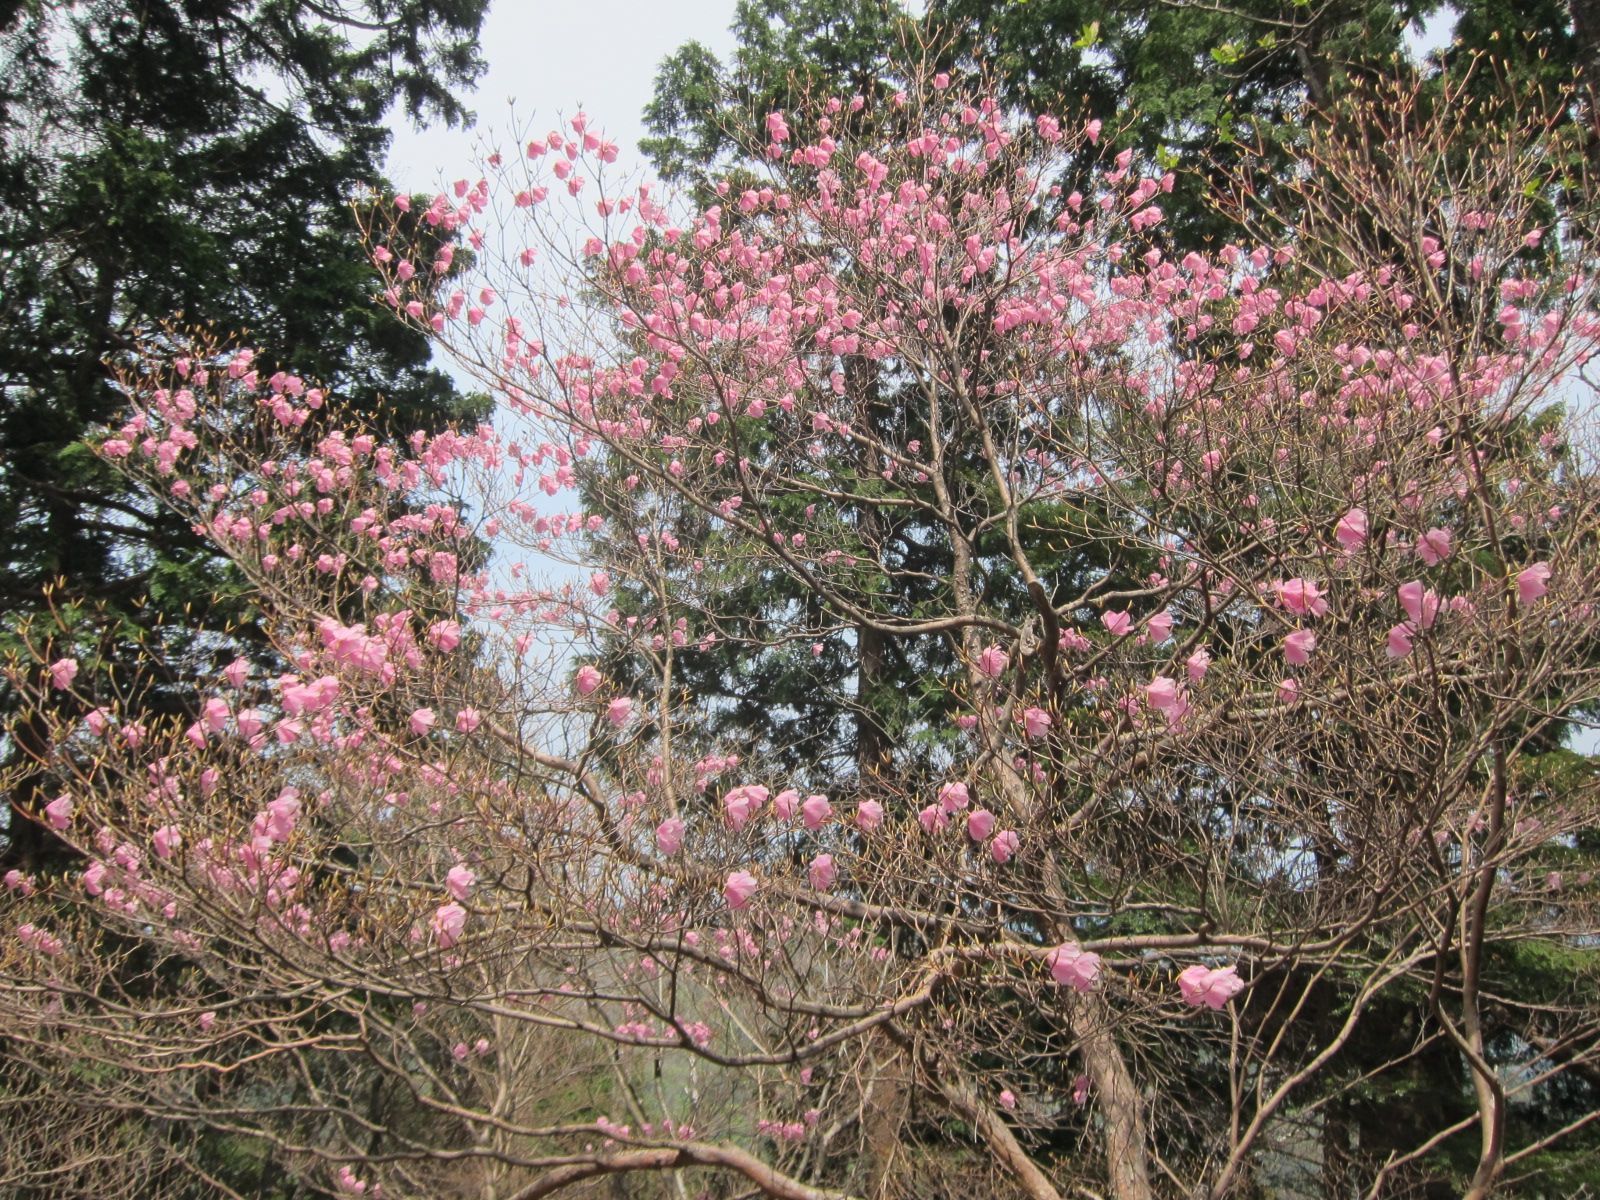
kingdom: Plantae
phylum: Tracheophyta
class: Magnoliopsida
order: Ericales
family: Ericaceae
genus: Rhododendron
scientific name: Rhododendron pentaphyllum
